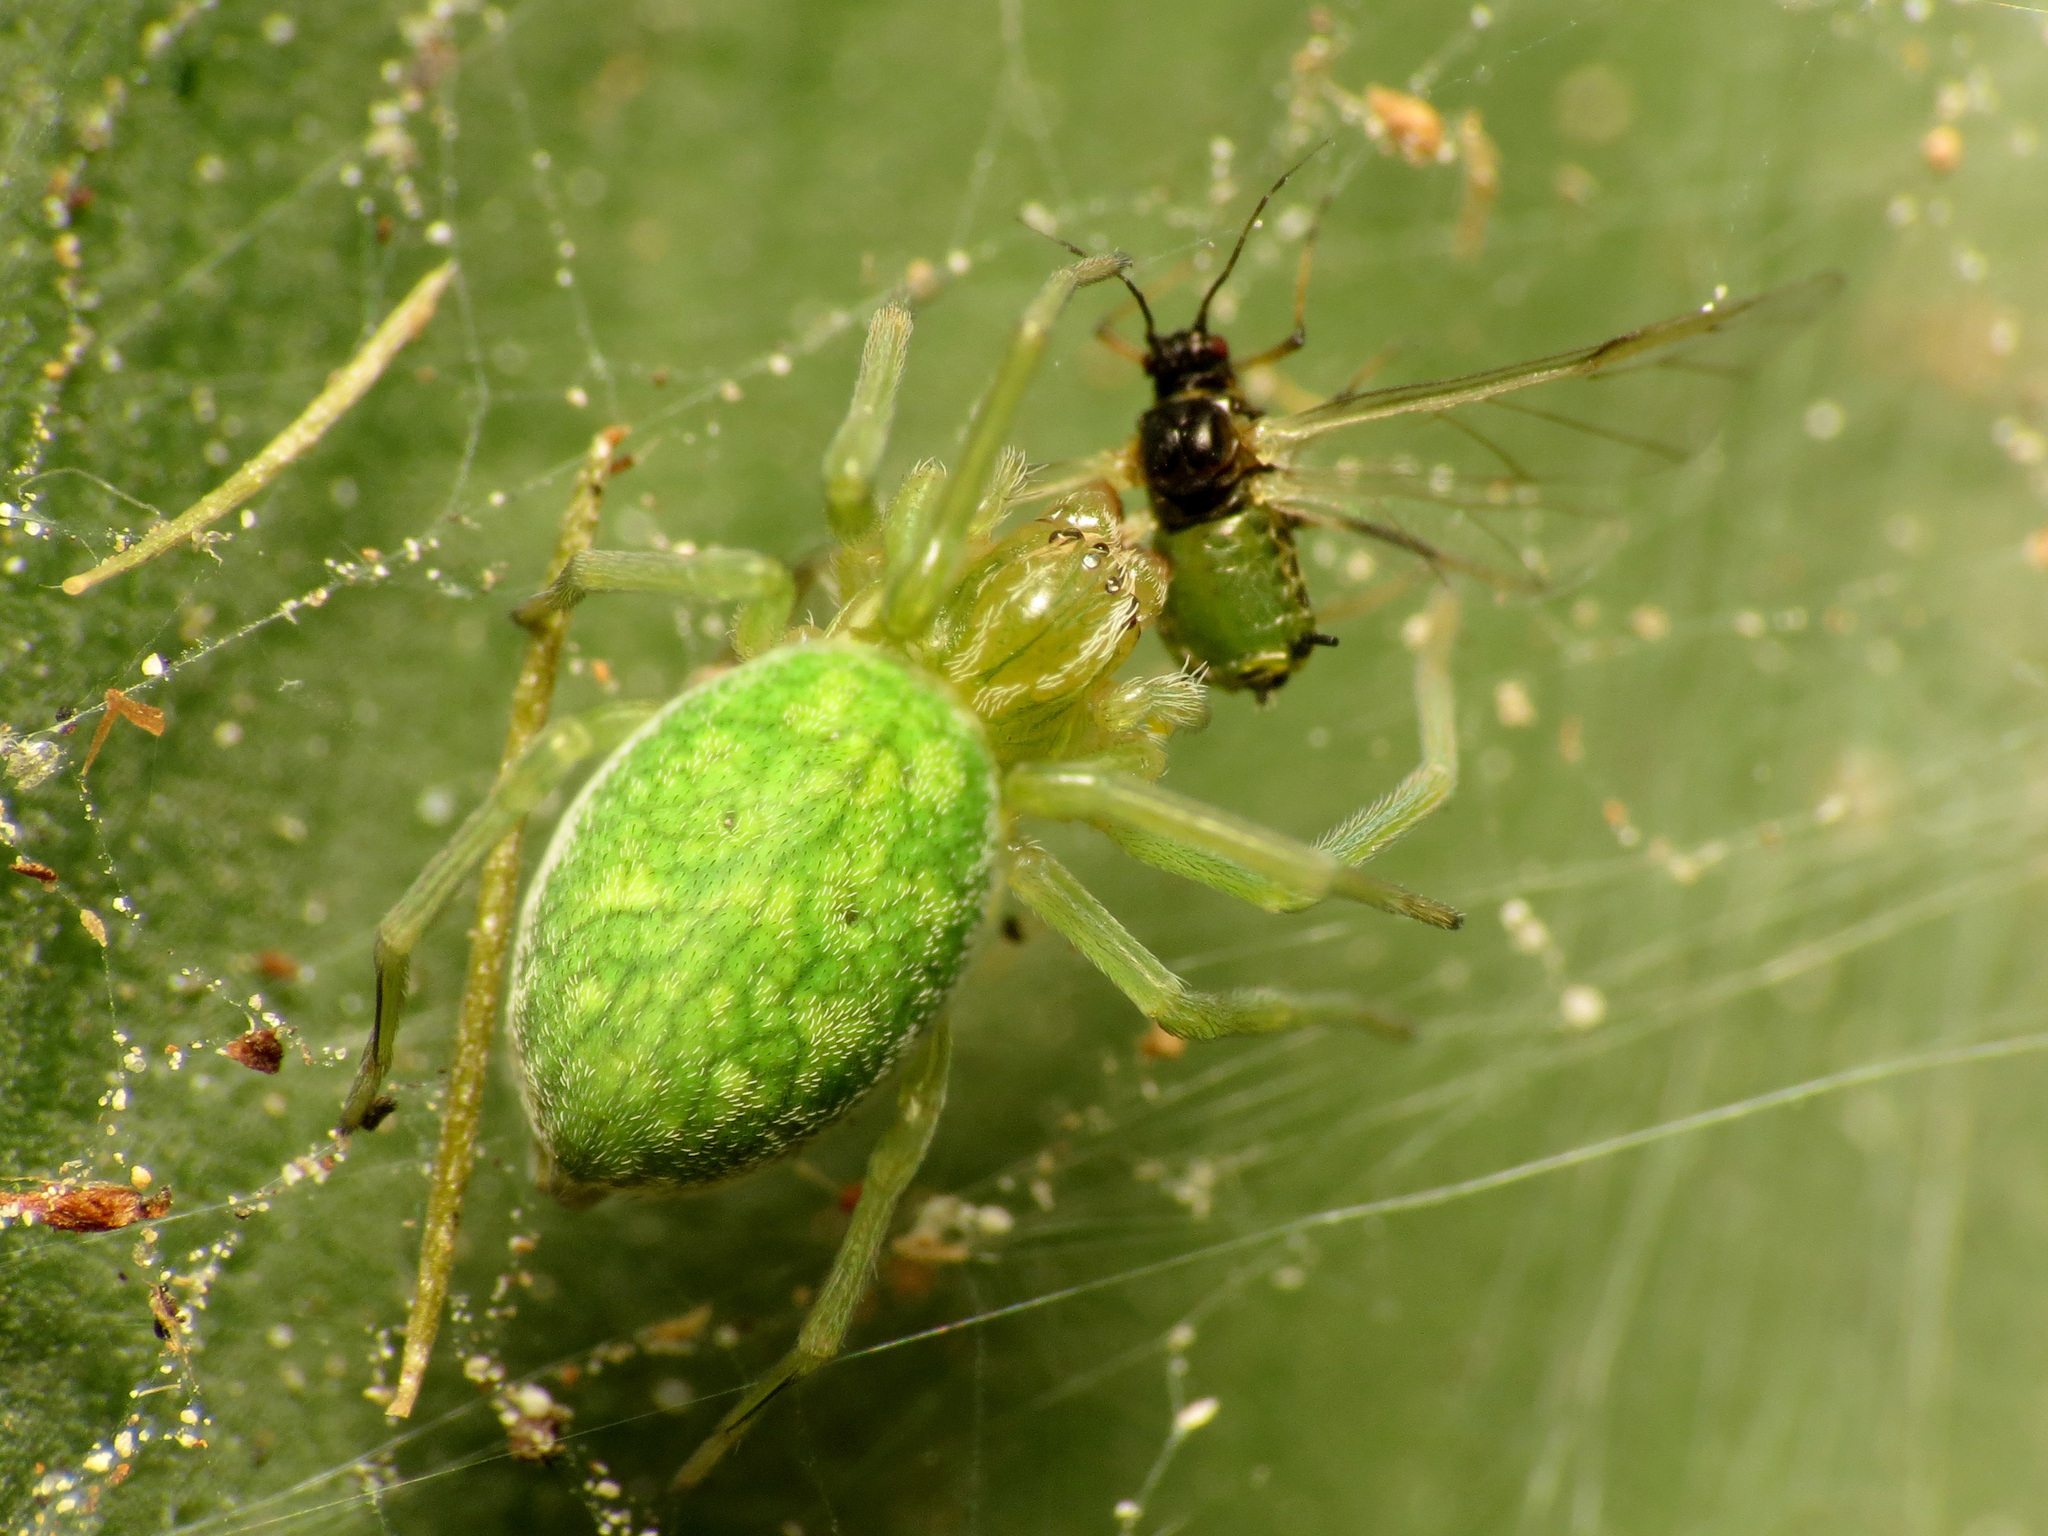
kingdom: Animalia
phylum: Arthropoda
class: Arachnida
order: Araneae
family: Dictynidae
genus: Nigma
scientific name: Nigma walckenaeri
